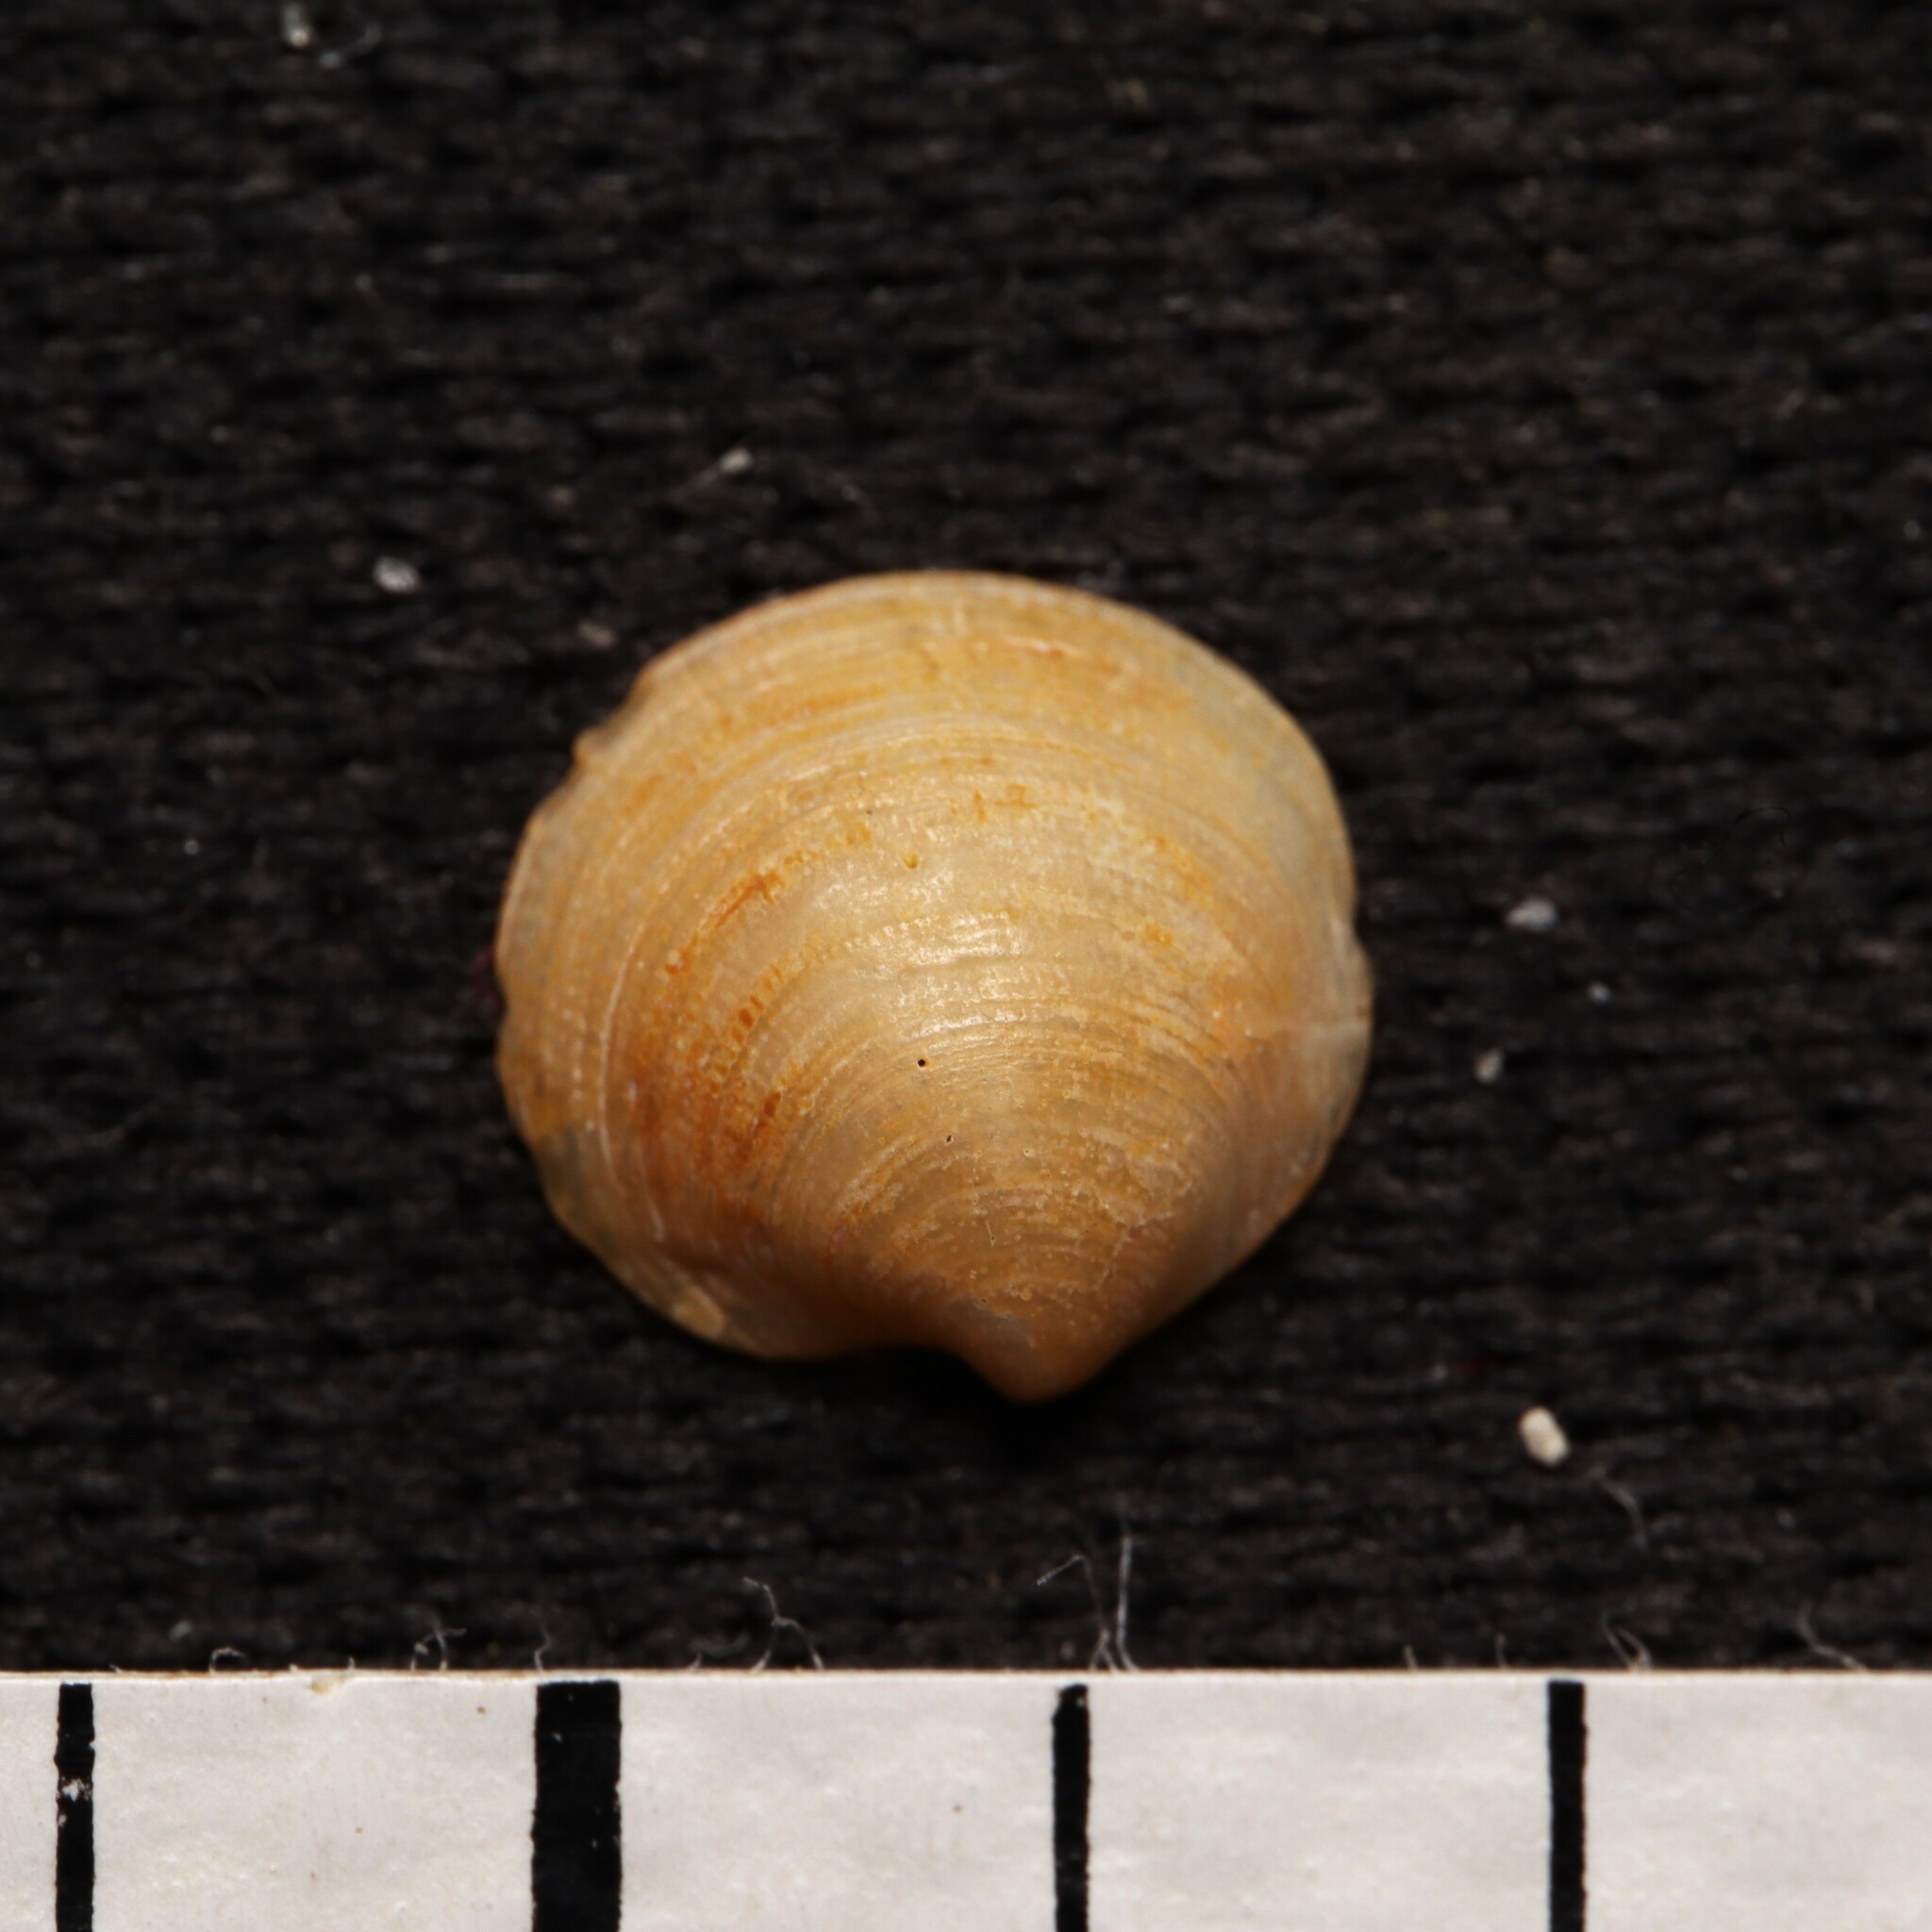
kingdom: Animalia
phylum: Mollusca
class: Bivalvia
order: Lucinida
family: Lucinidae
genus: Parvilucina
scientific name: Parvilucina crenella
